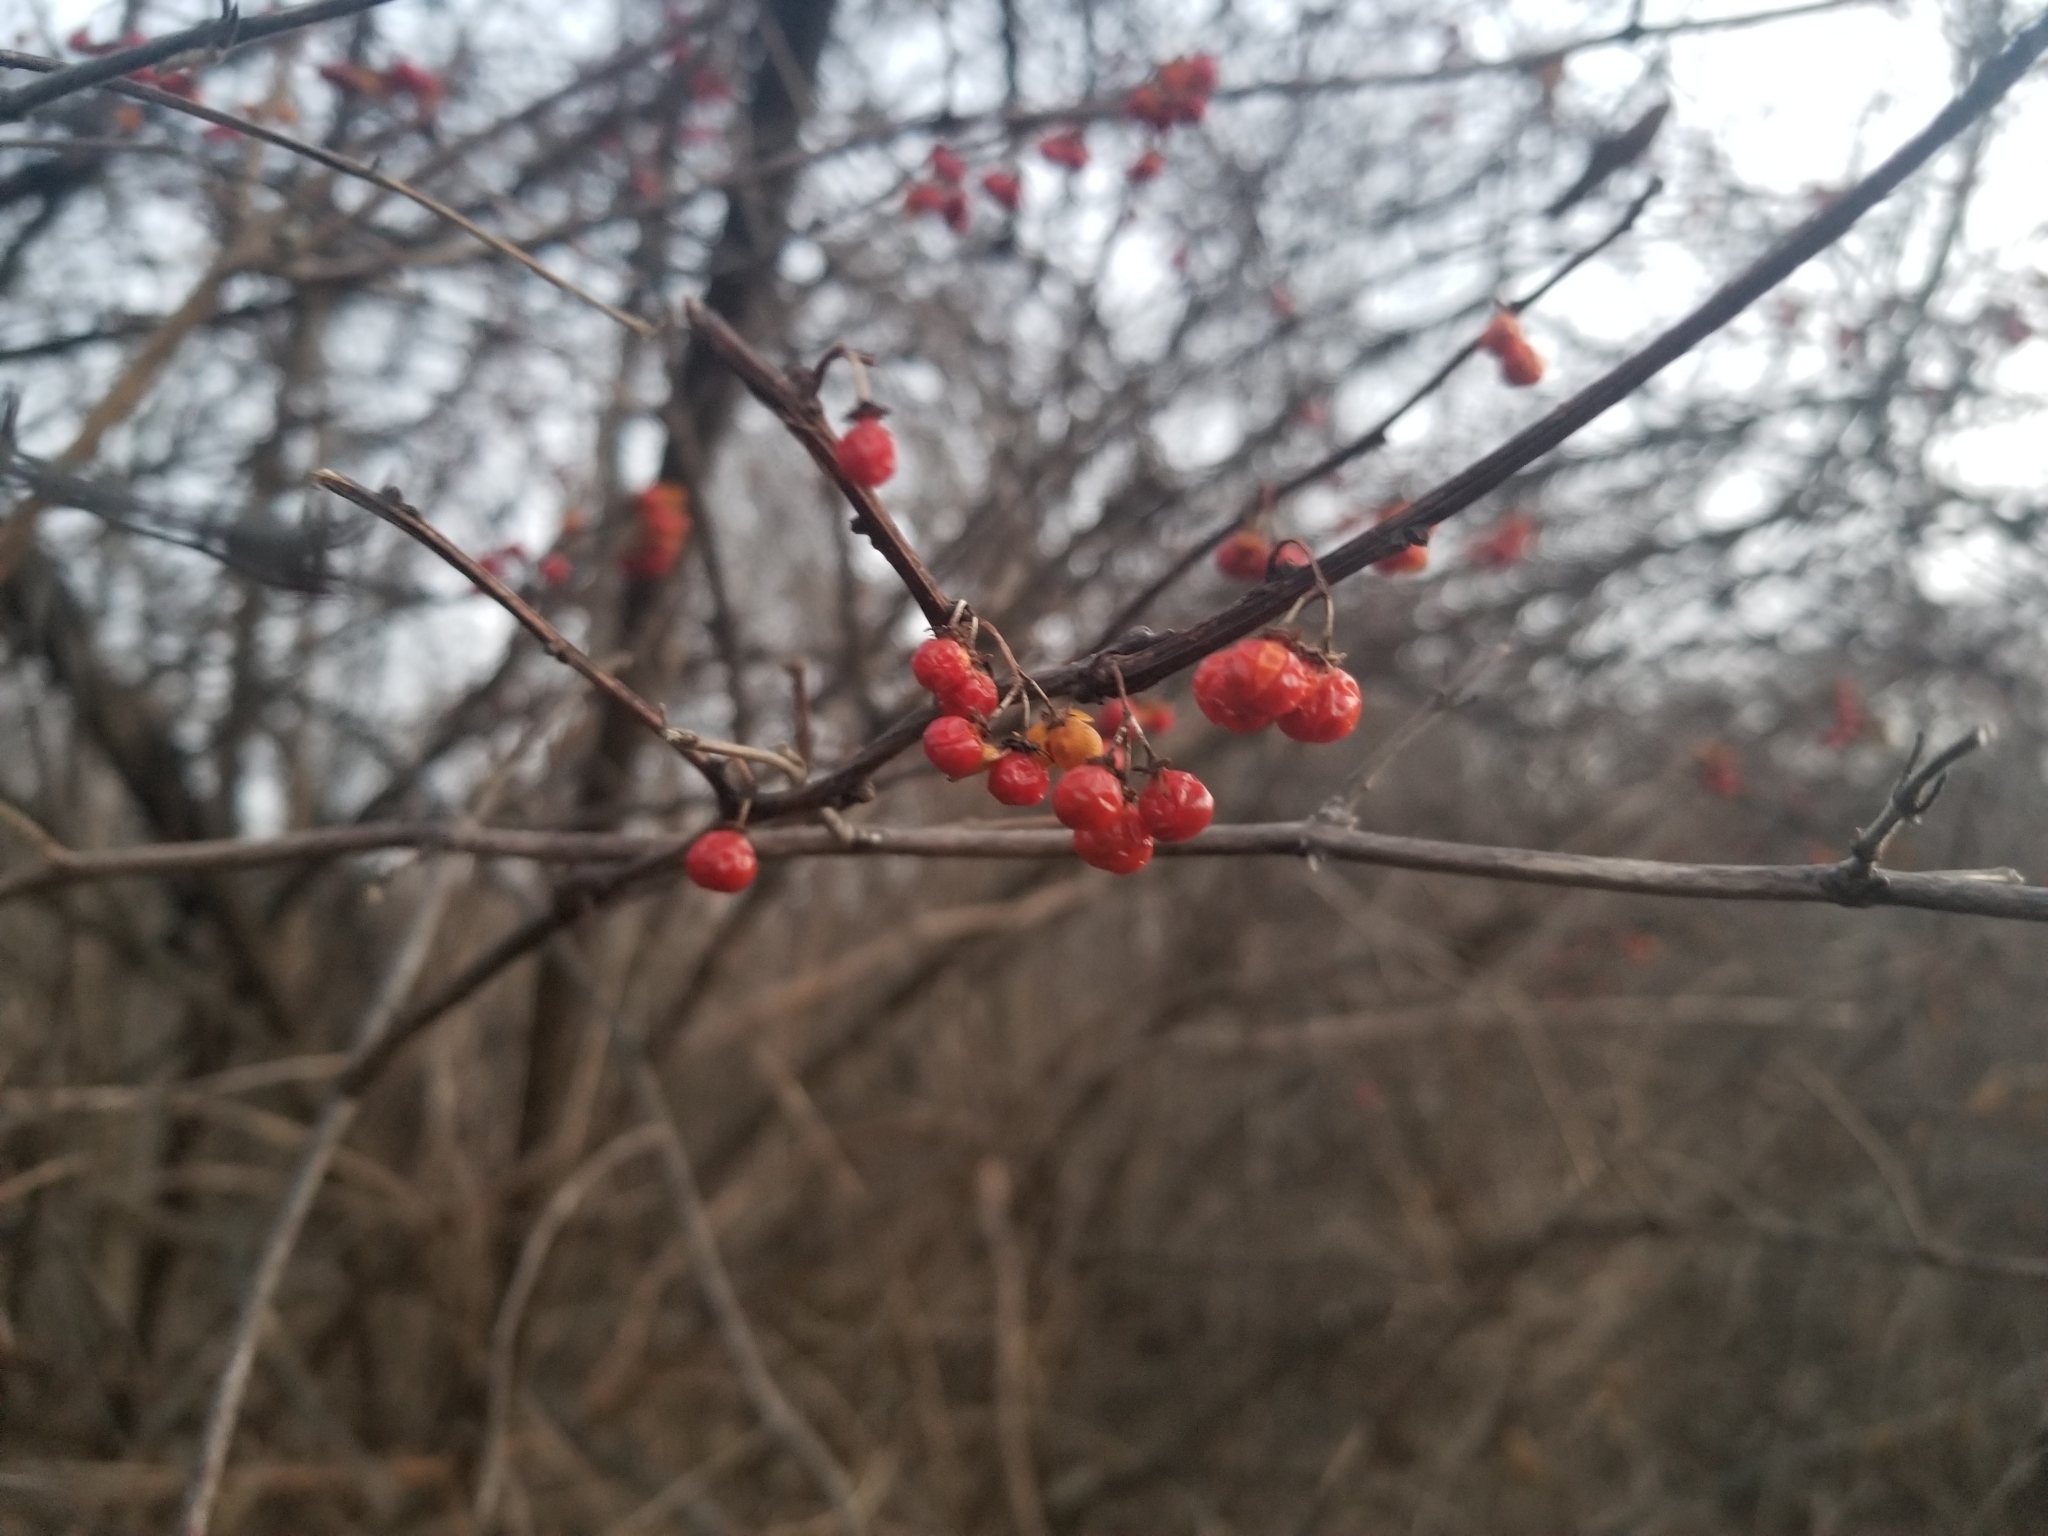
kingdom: Plantae
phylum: Tracheophyta
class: Magnoliopsida
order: Celastrales
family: Celastraceae
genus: Celastrus
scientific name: Celastrus orbiculatus
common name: Oriental bittersweet
